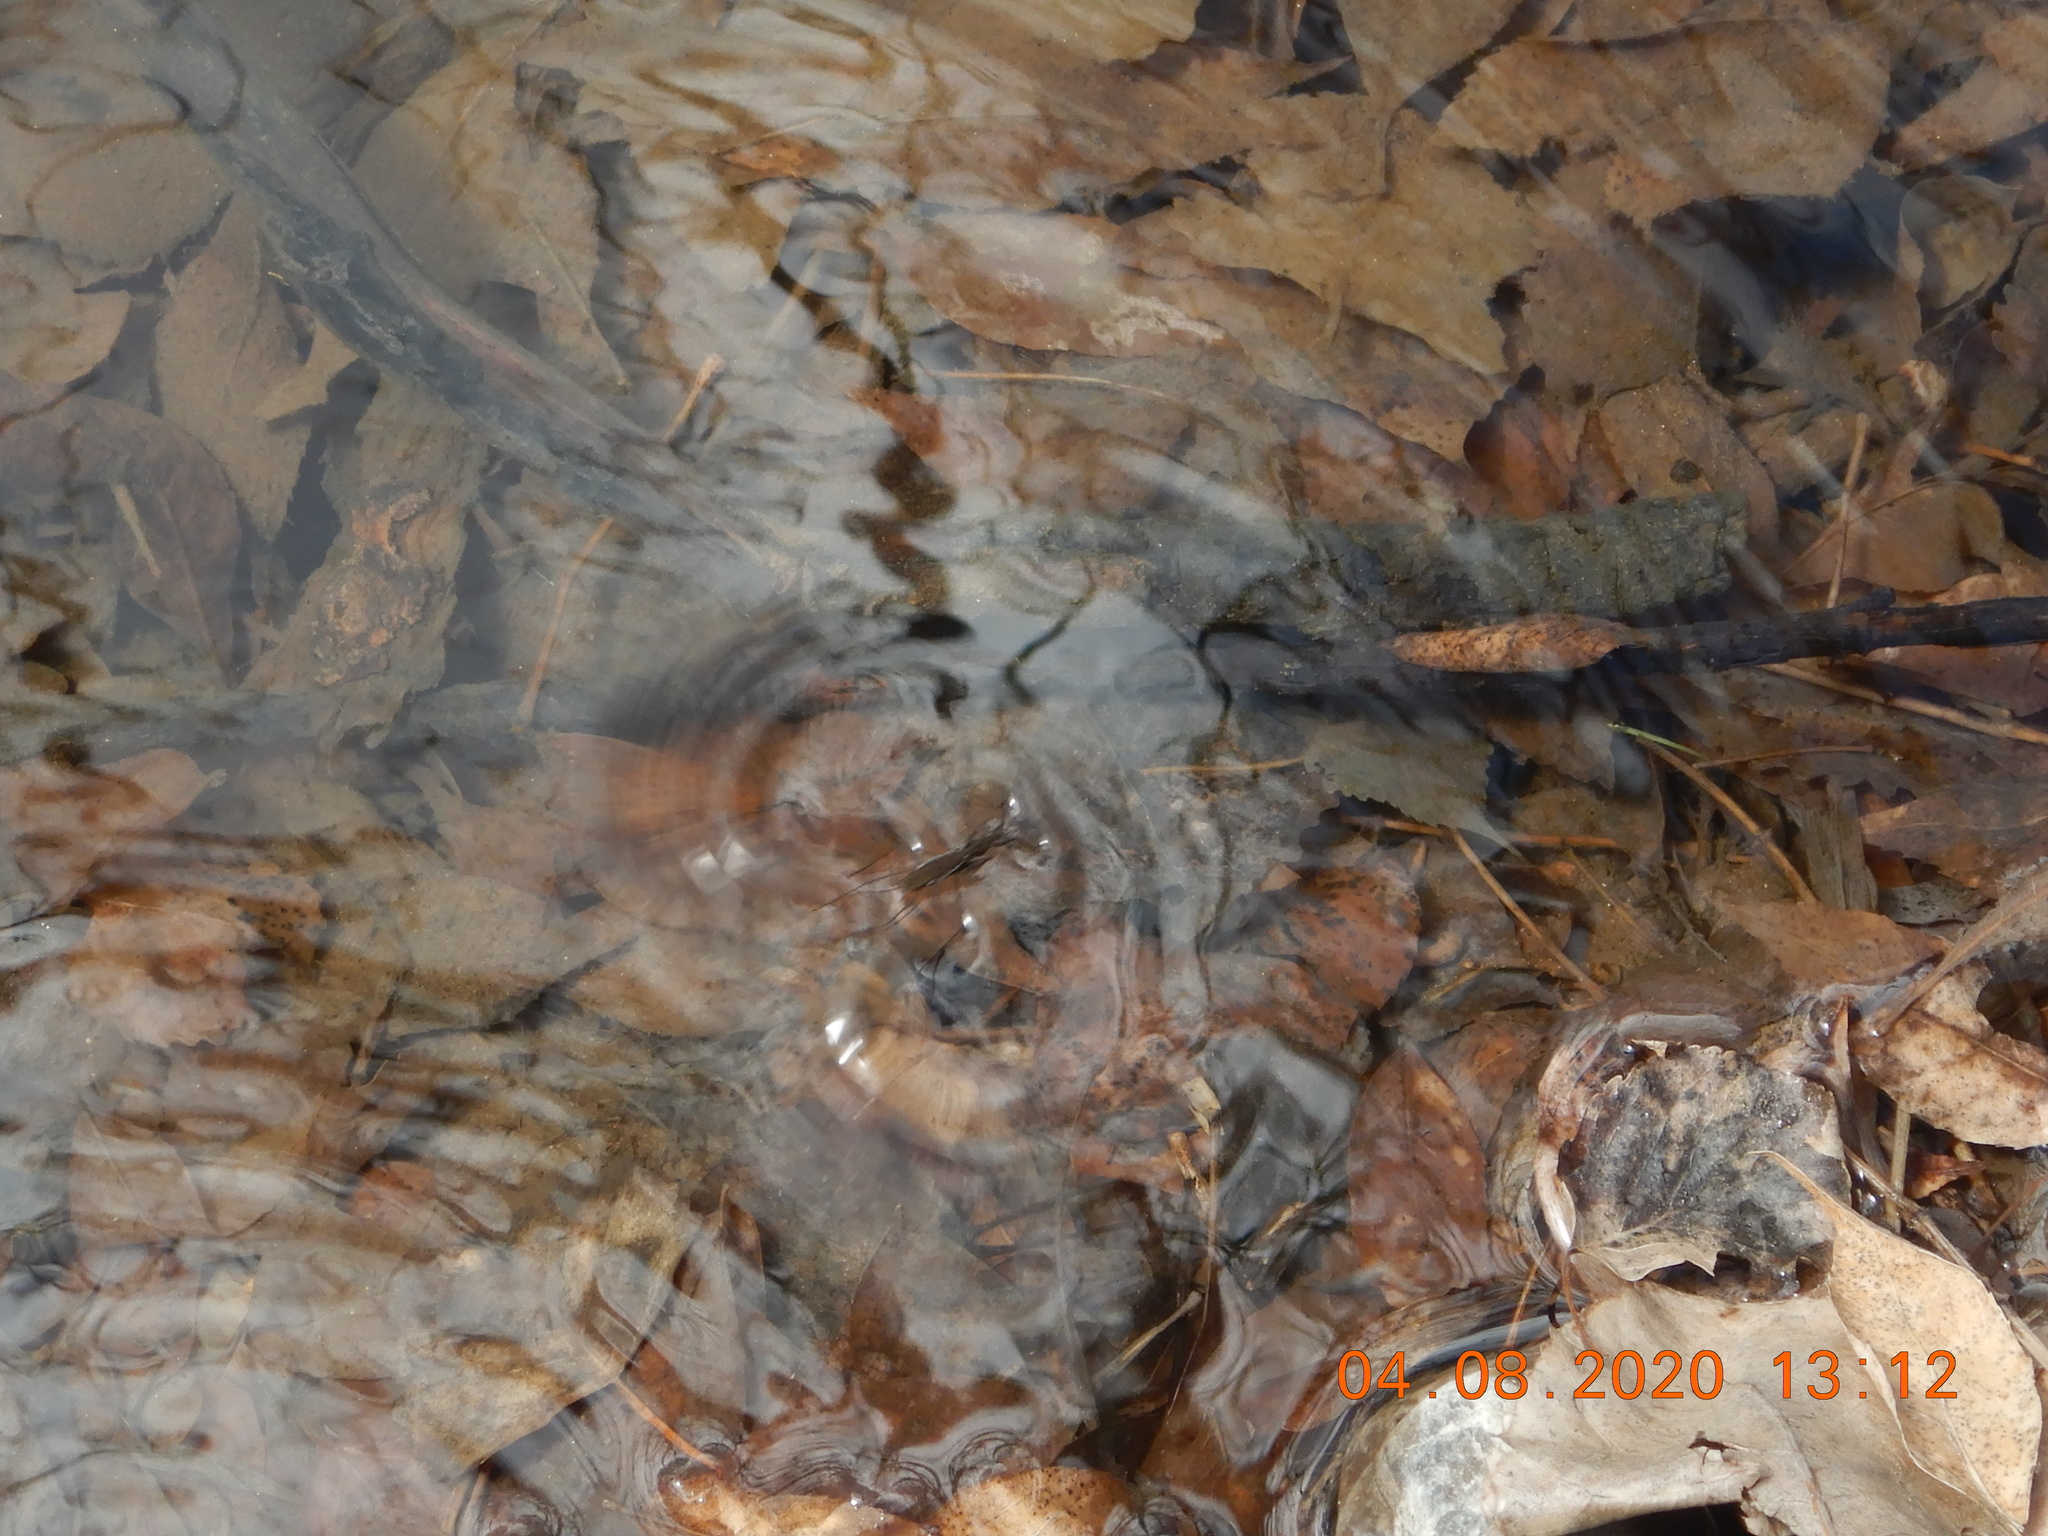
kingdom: Animalia
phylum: Arthropoda
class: Insecta
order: Hemiptera
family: Gerridae
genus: Aquarius
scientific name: Aquarius remigis
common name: Common water strider
